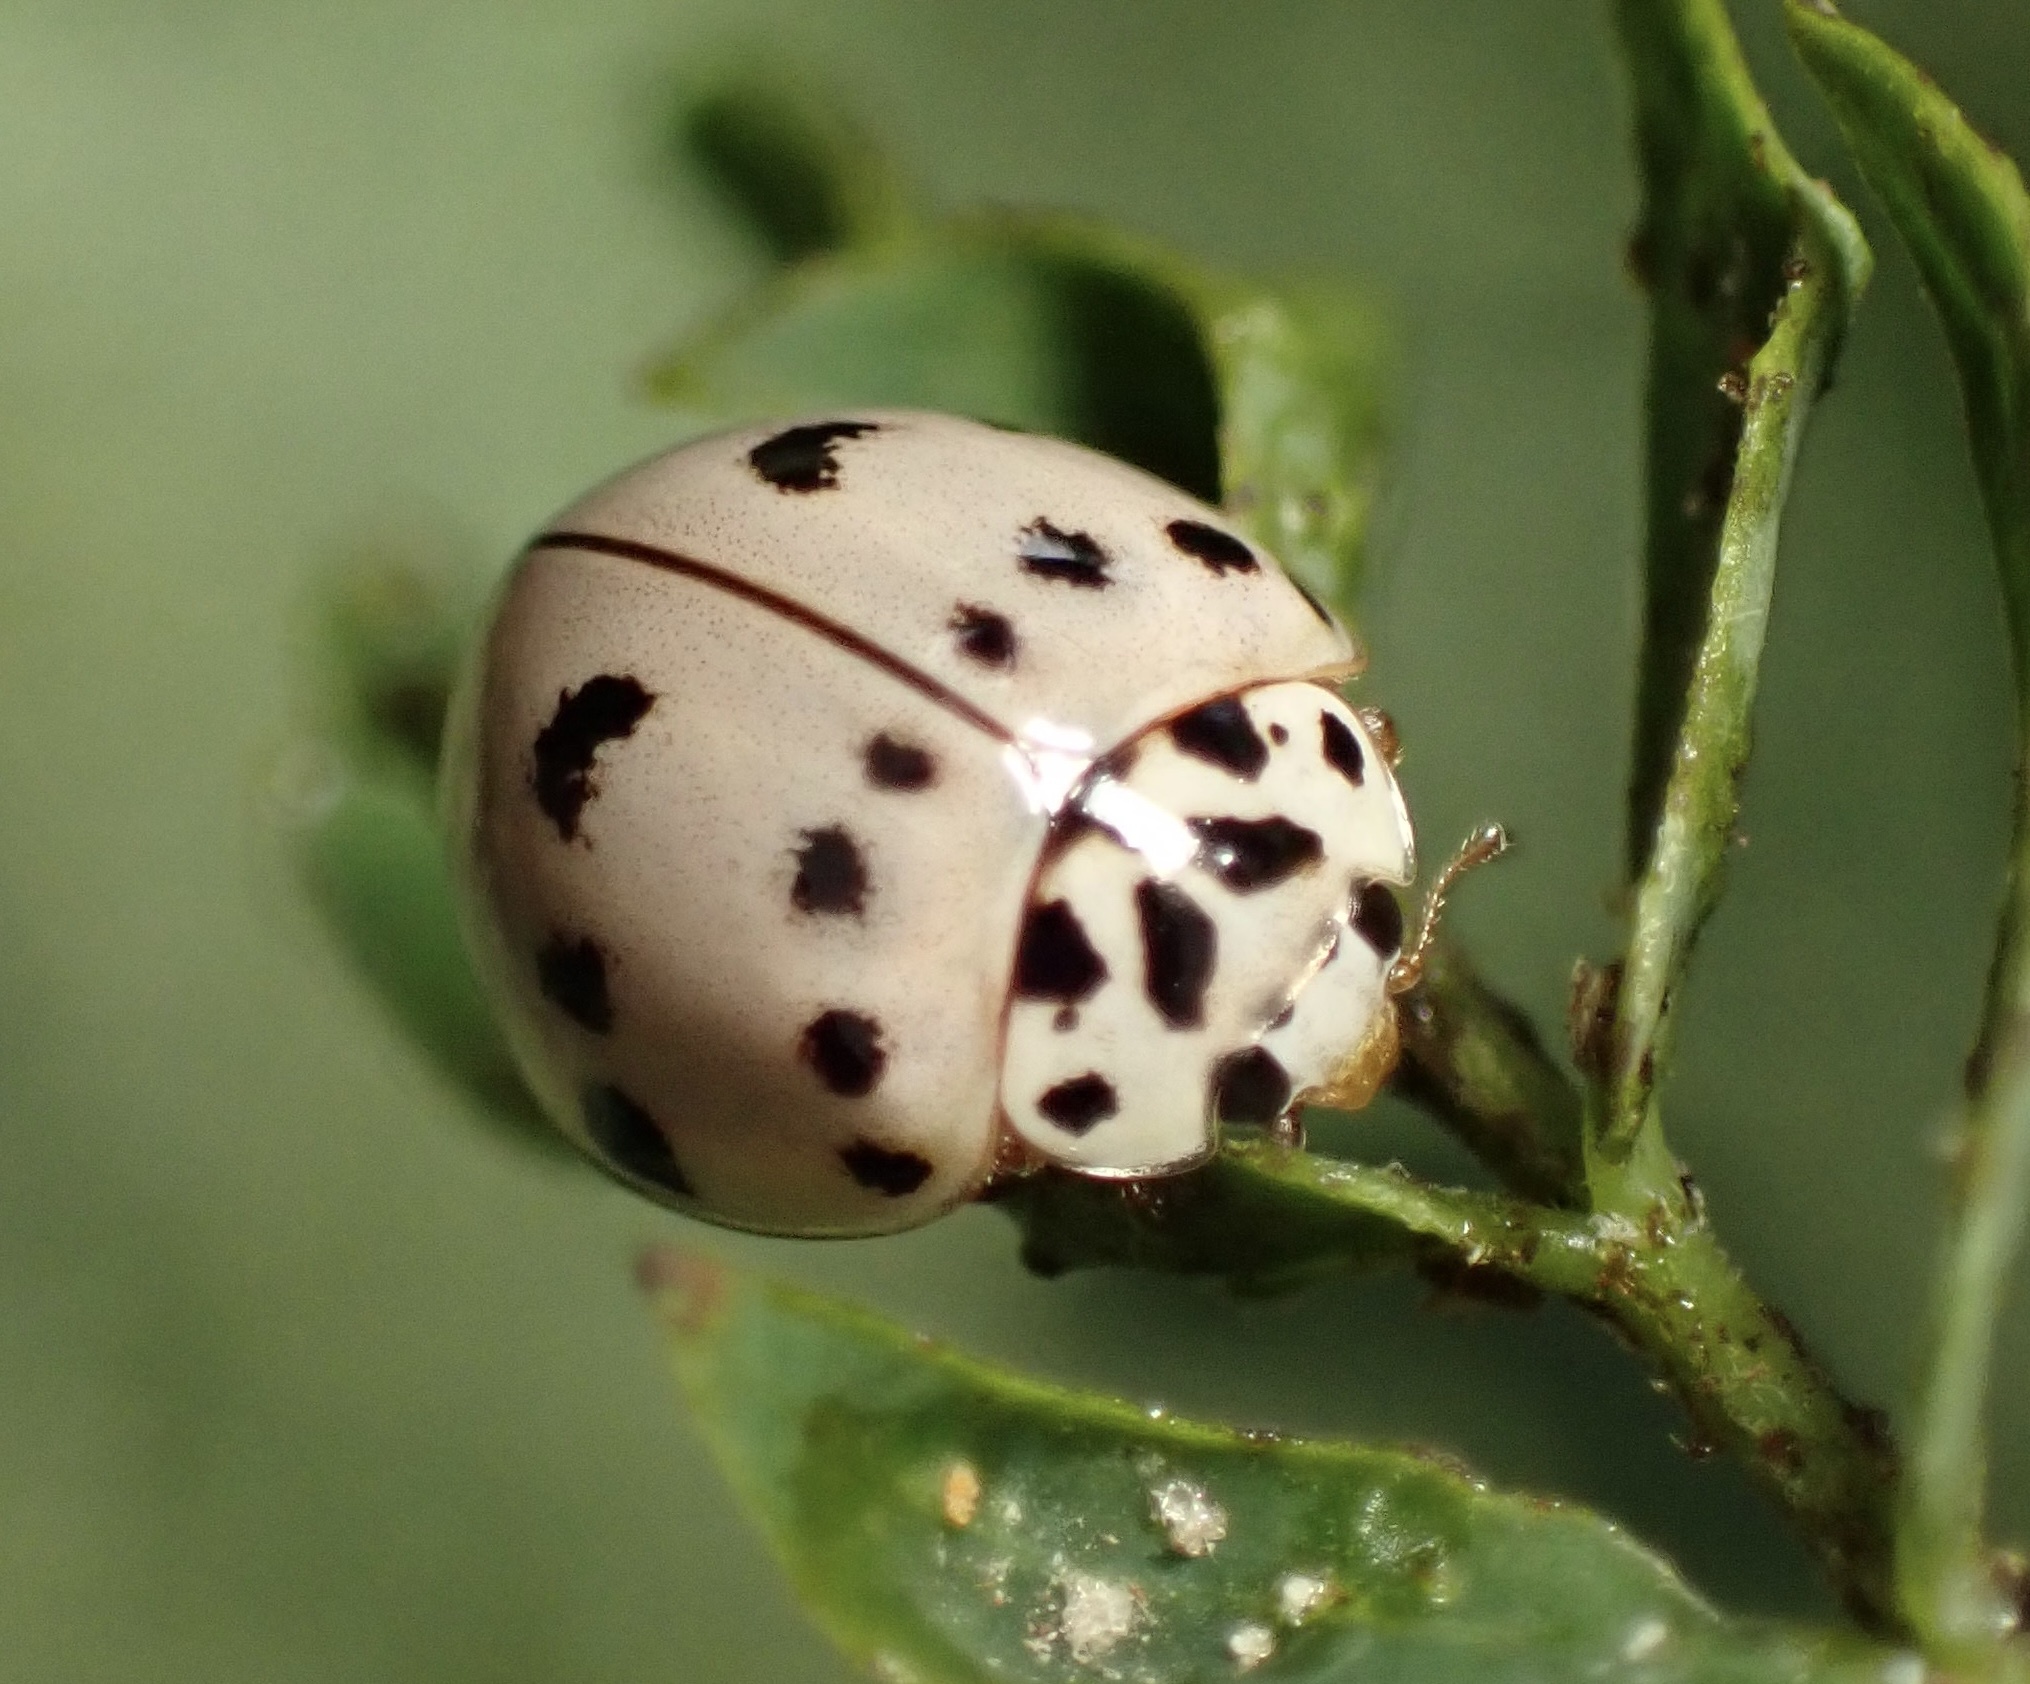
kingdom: Animalia
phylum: Arthropoda
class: Insecta
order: Coleoptera
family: Coccinellidae
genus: Olla
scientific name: Olla v-nigrum
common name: Ashy gray lady beetle
